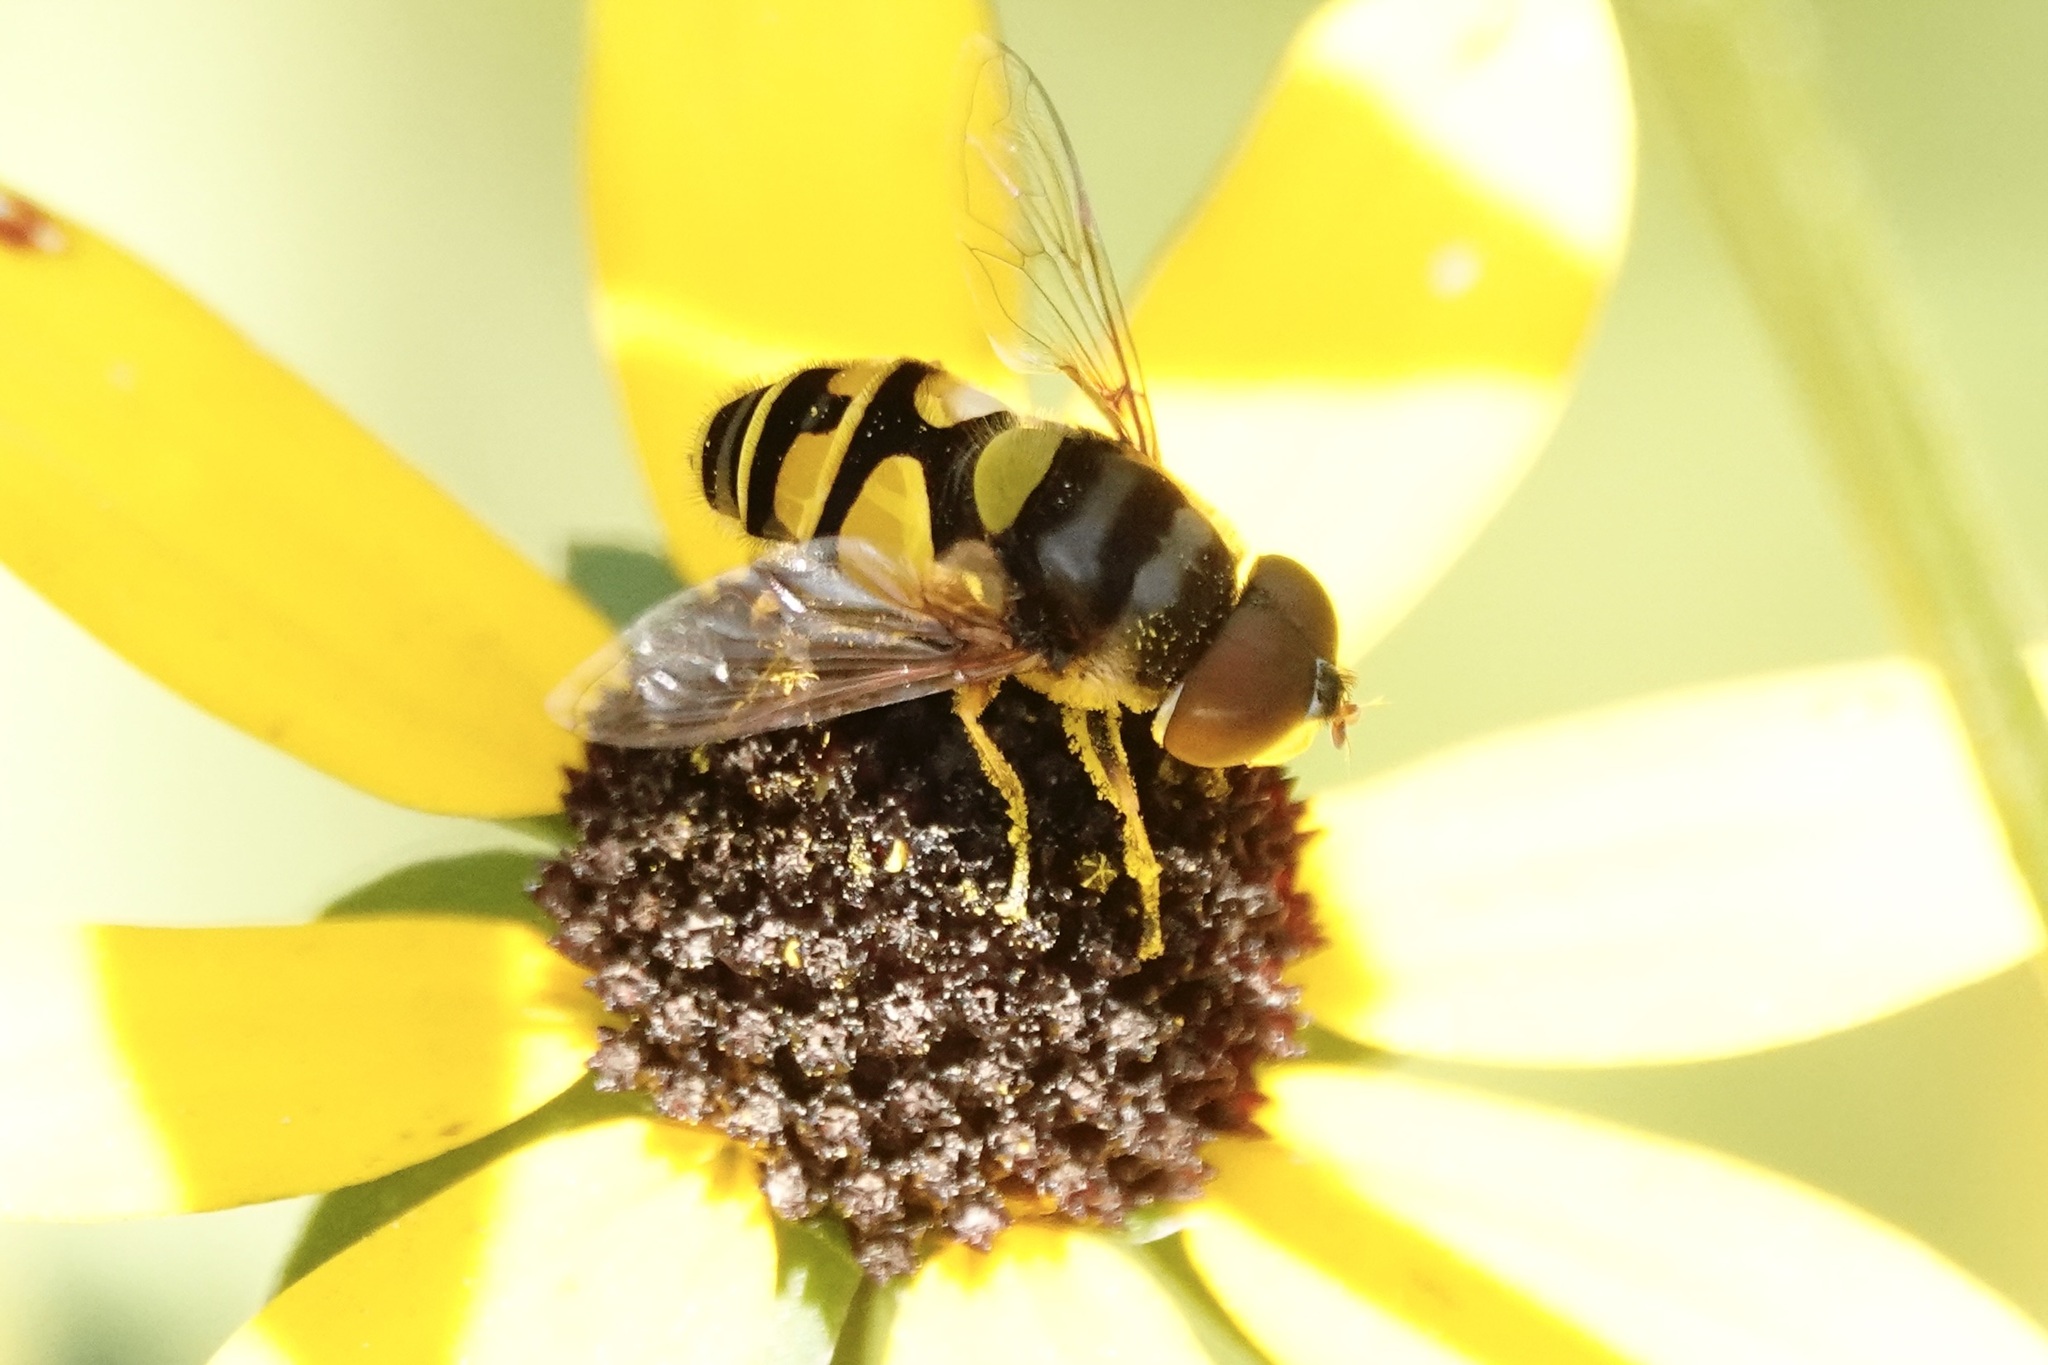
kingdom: Animalia
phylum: Arthropoda
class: Insecta
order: Diptera
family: Syrphidae
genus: Eristalis
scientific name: Eristalis transversa
